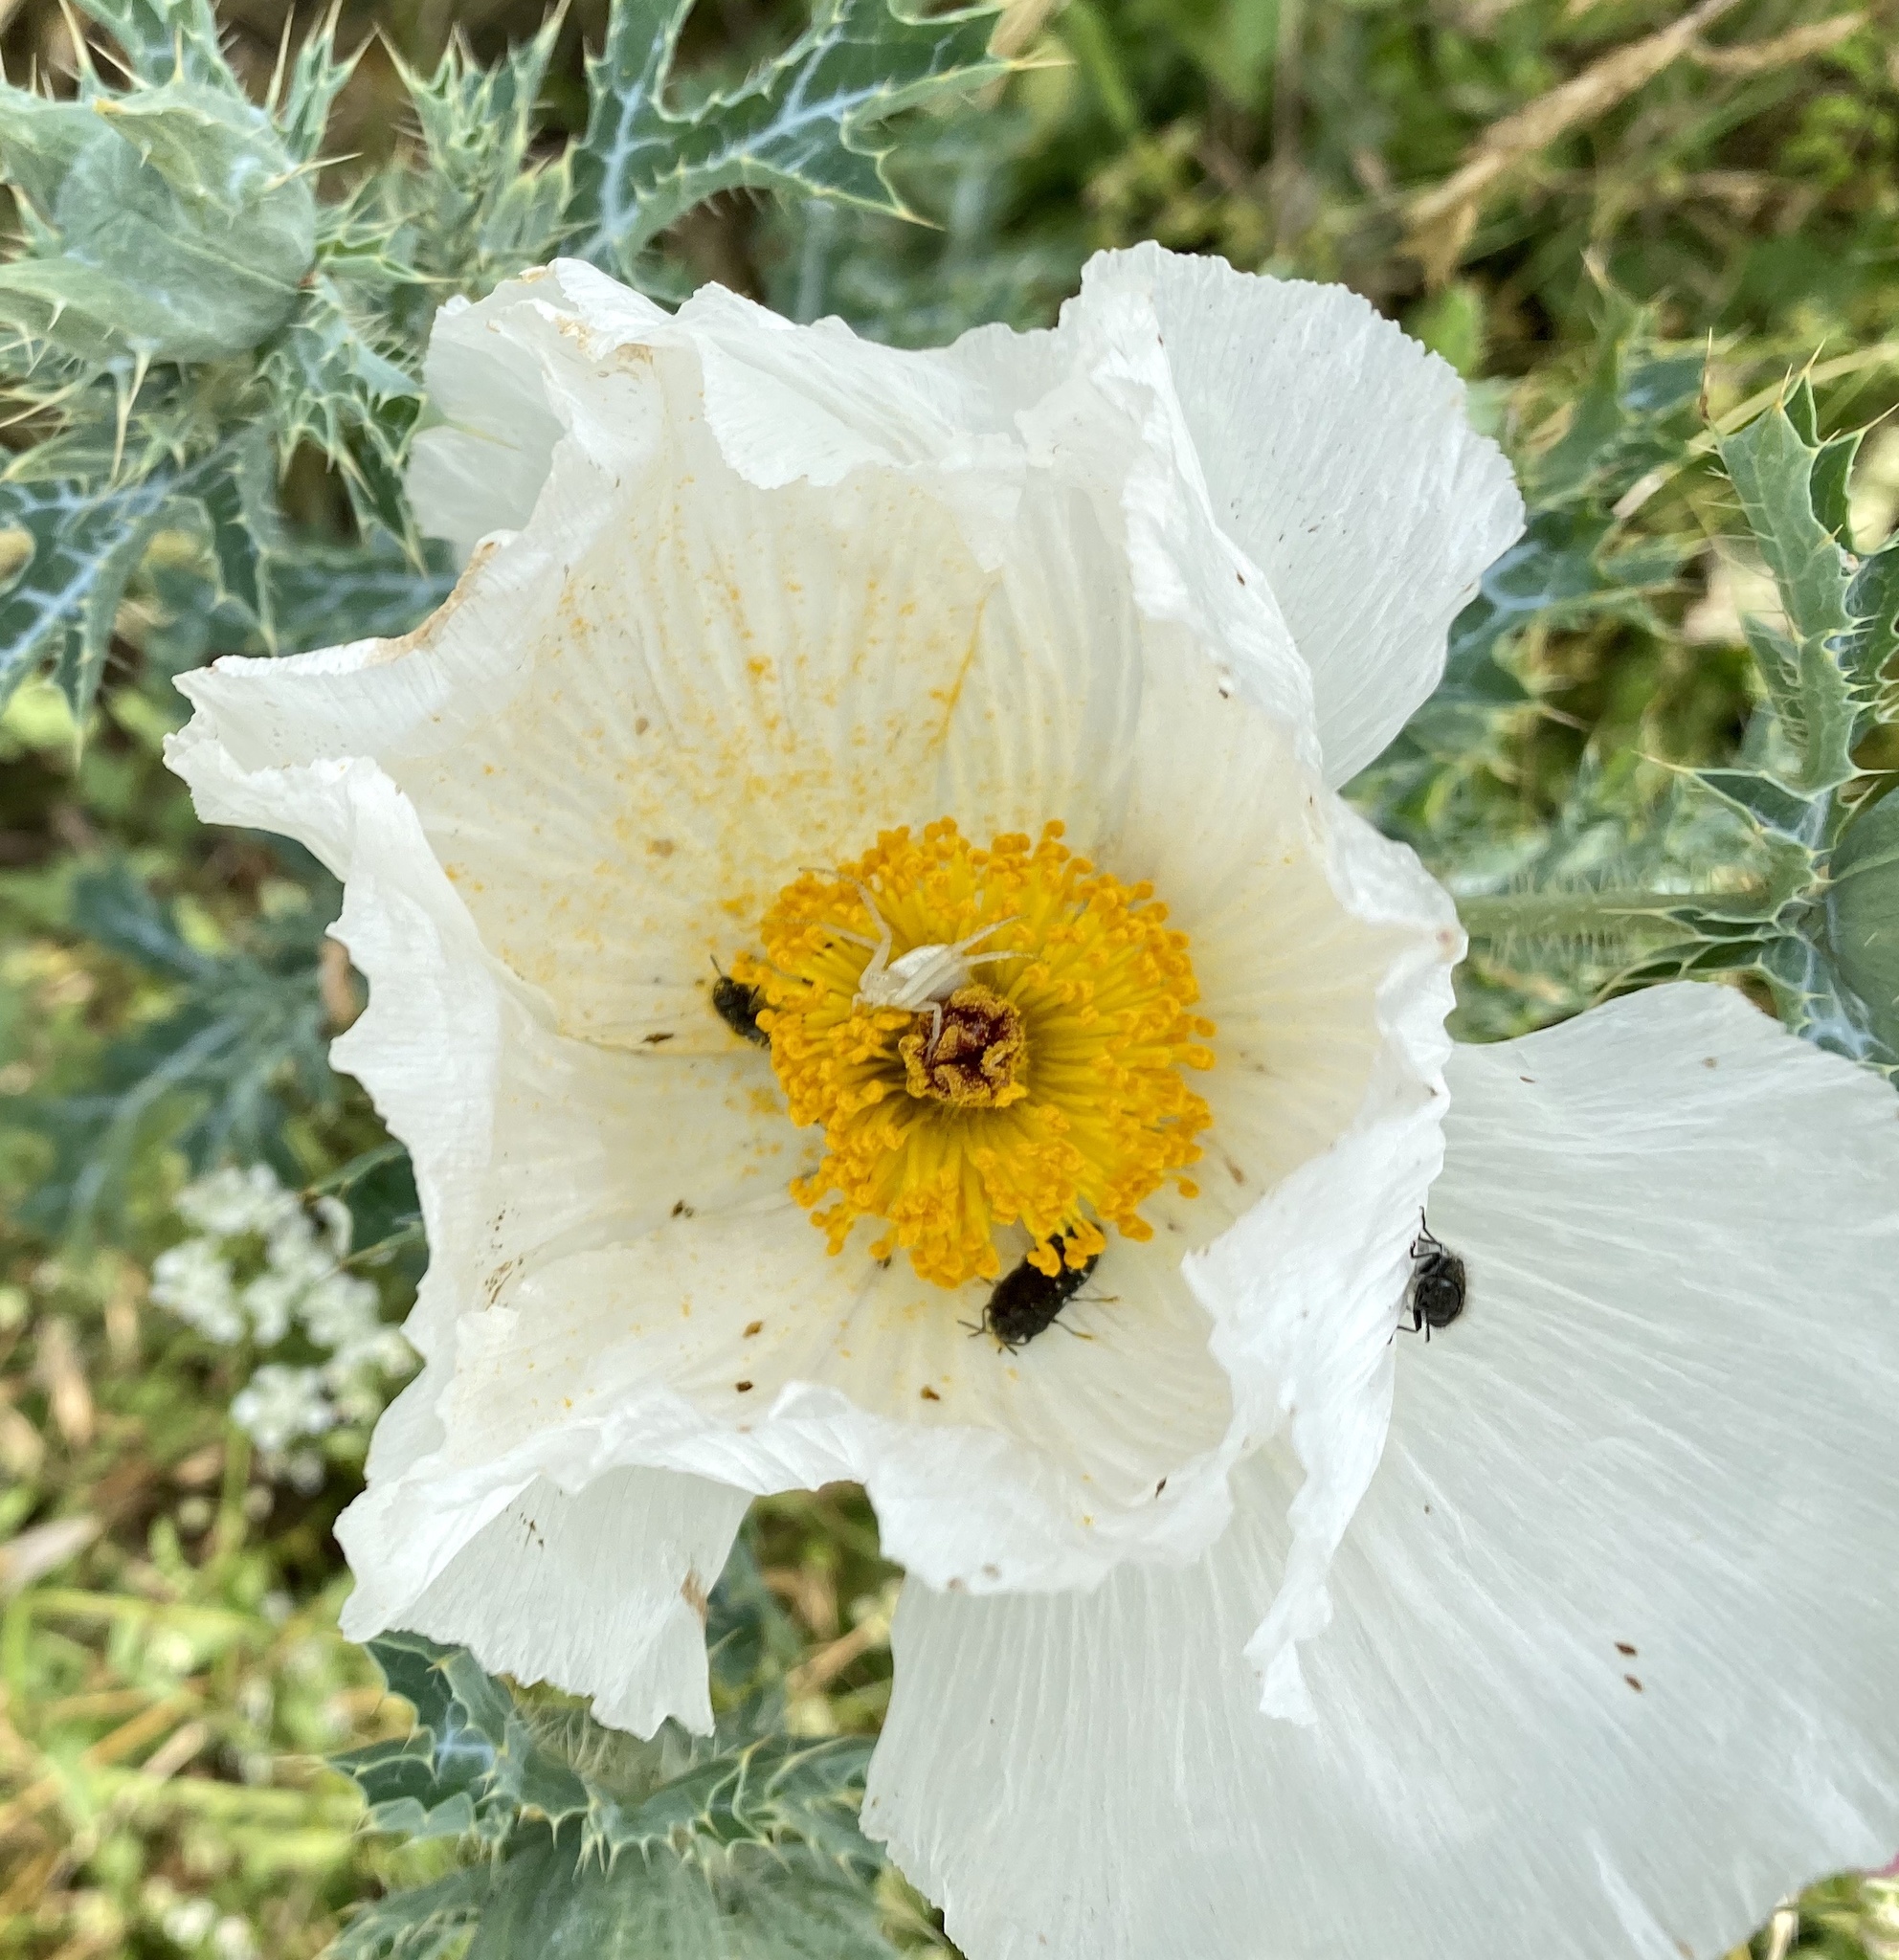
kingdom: Plantae
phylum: Tracheophyta
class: Magnoliopsida
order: Ranunculales
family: Papaveraceae
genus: Argemone
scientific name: Argemone albiflora
